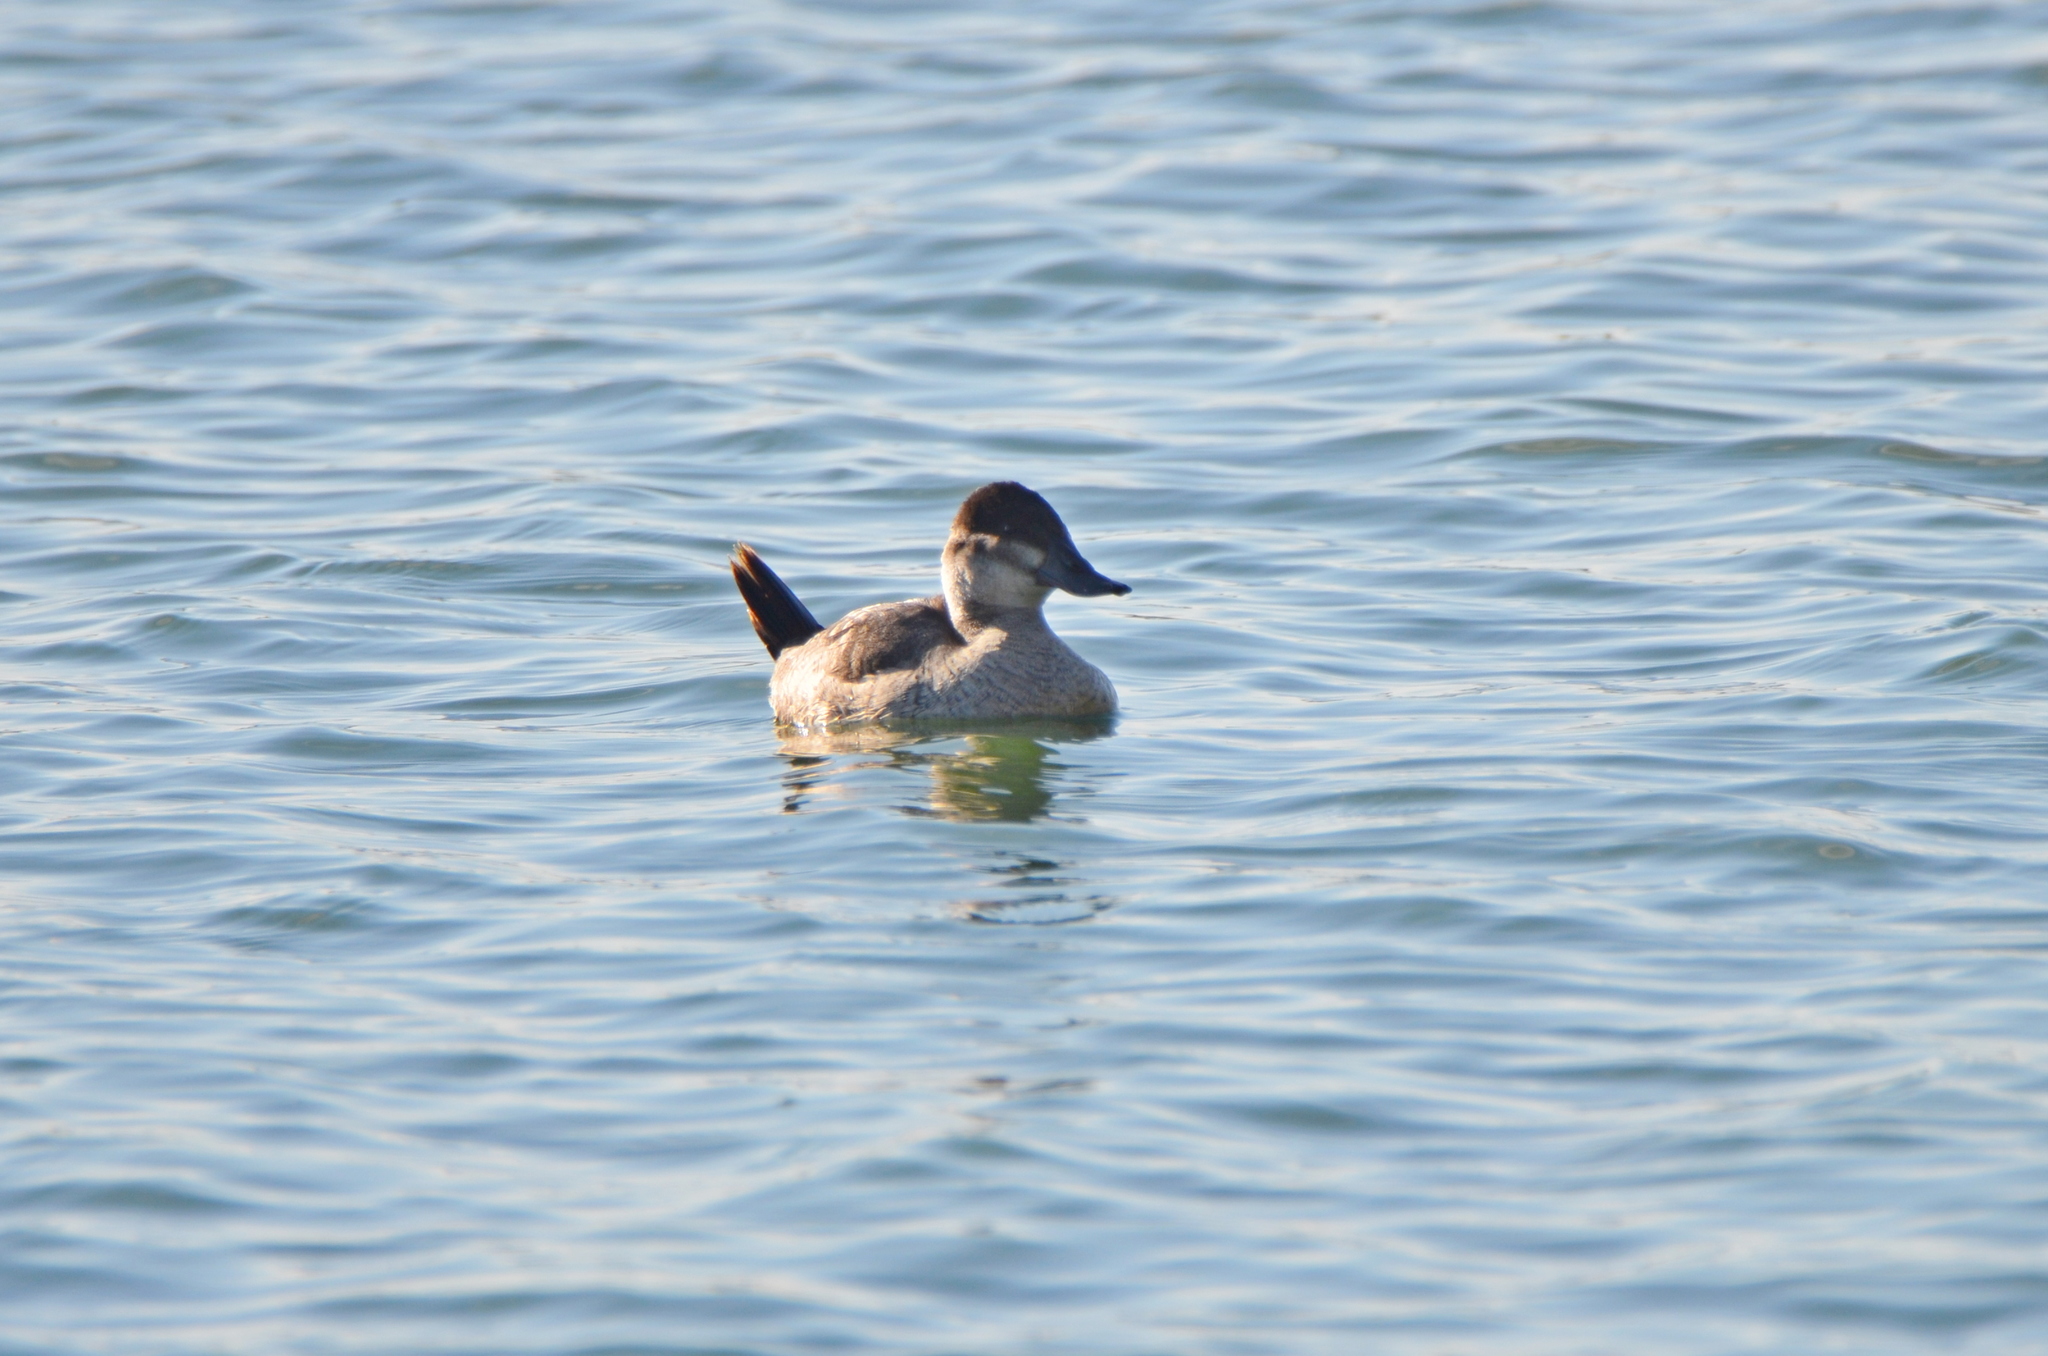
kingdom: Animalia
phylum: Chordata
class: Aves
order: Anseriformes
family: Anatidae
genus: Oxyura
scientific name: Oxyura jamaicensis
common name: Ruddy duck
